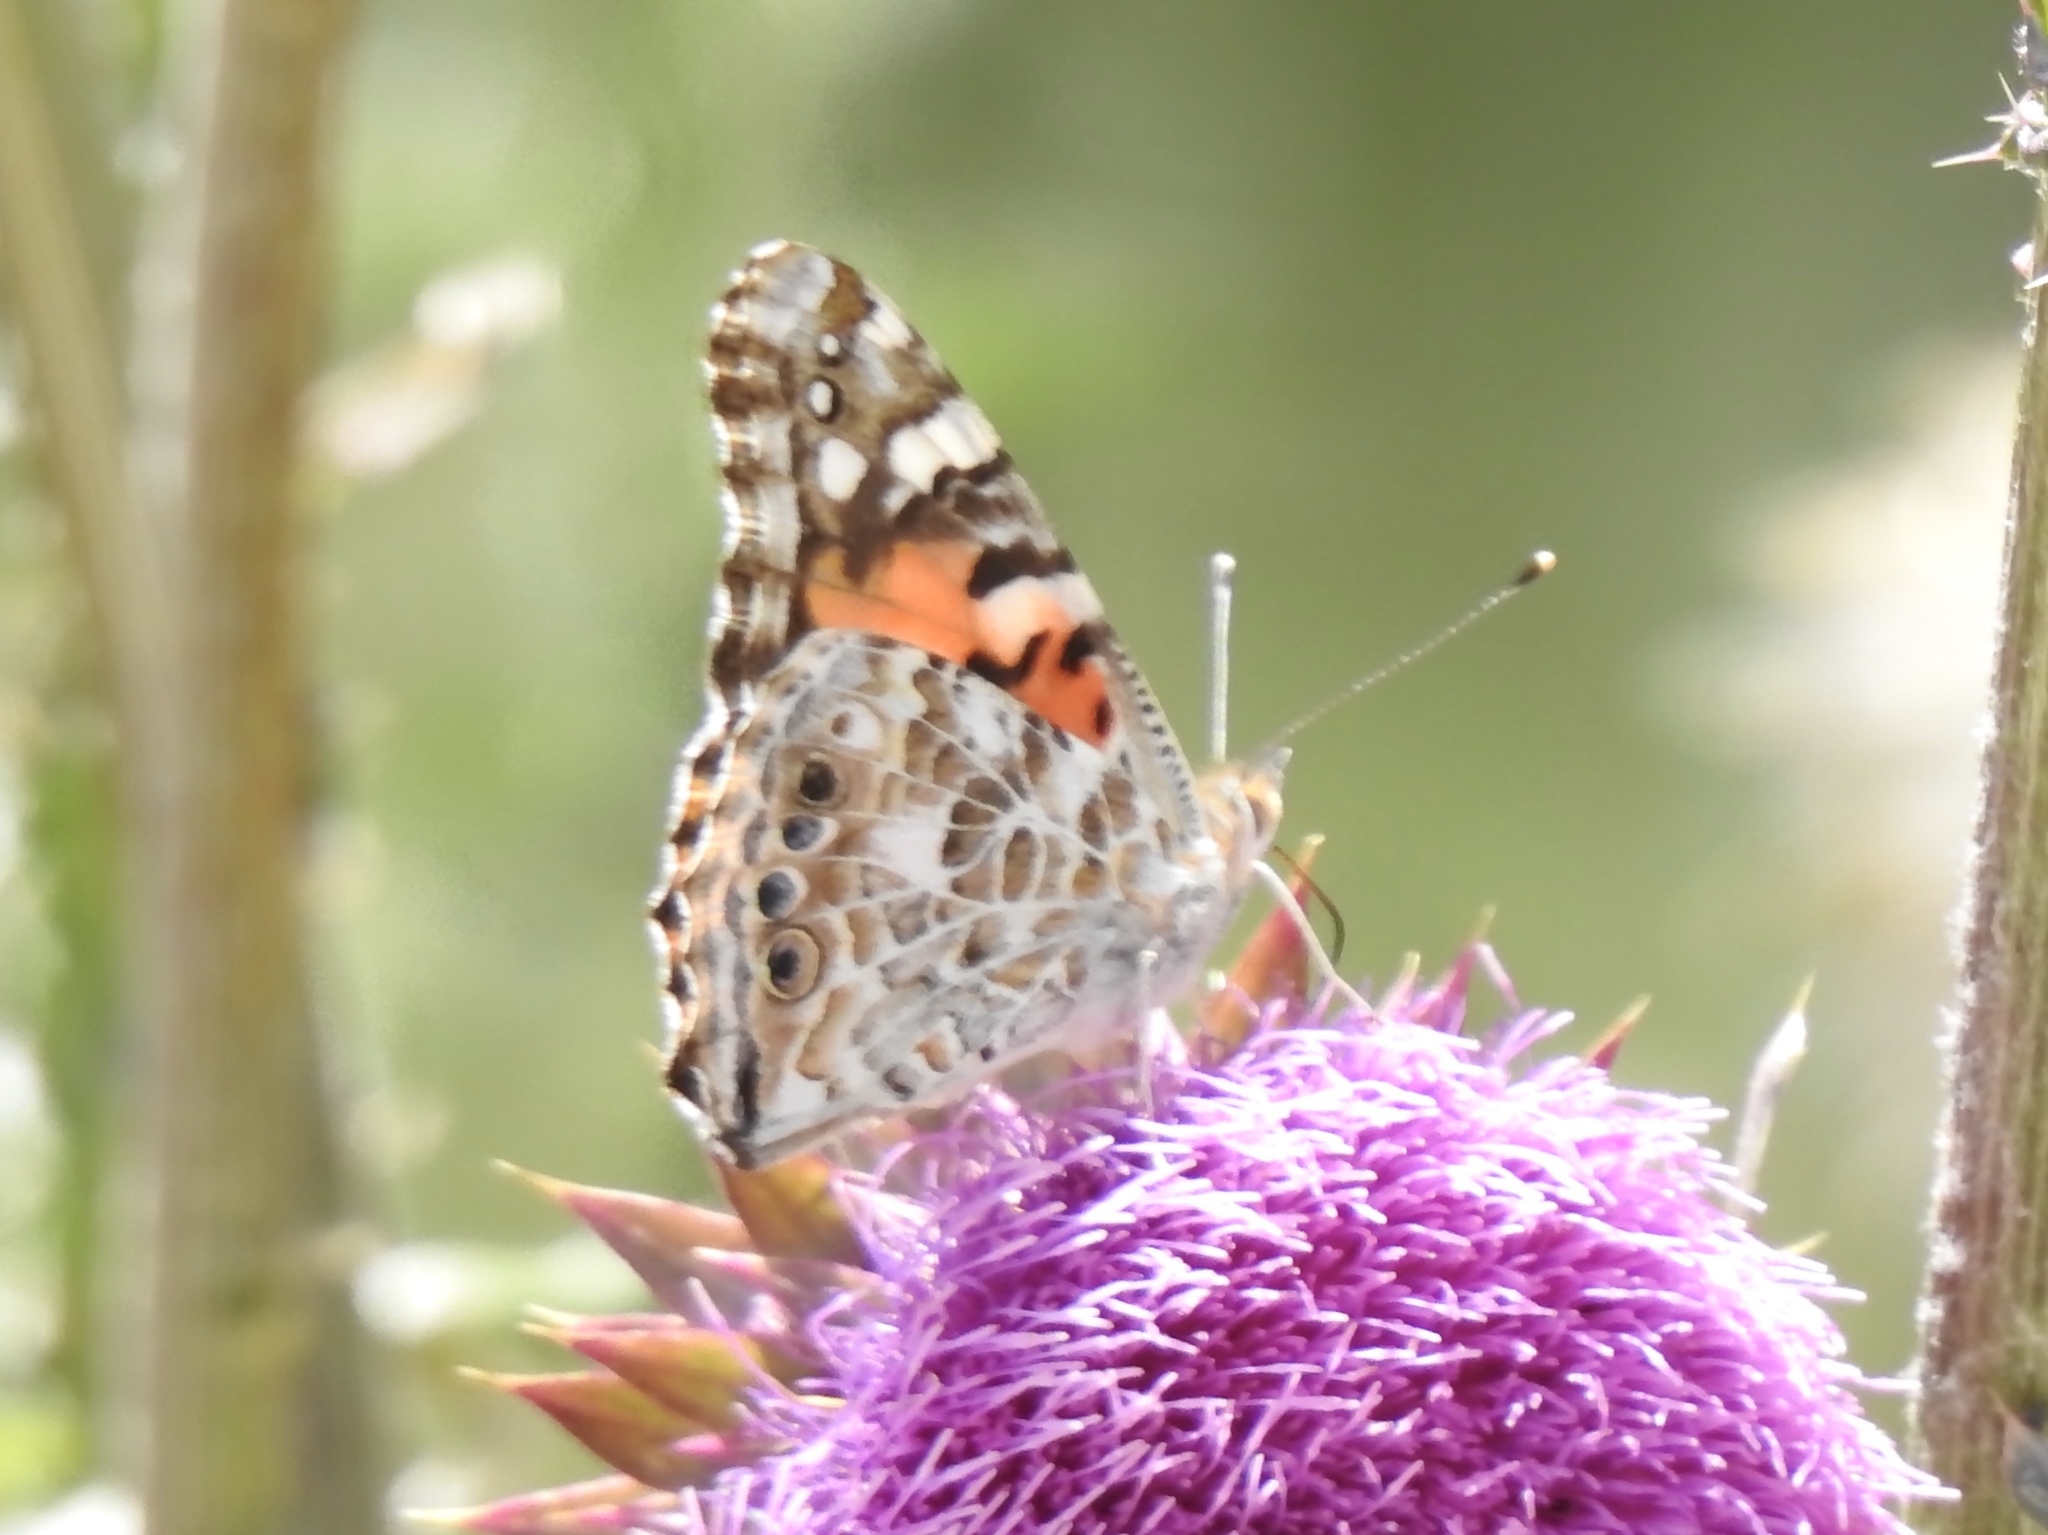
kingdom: Animalia
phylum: Arthropoda
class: Insecta
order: Lepidoptera
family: Nymphalidae
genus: Vanessa
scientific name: Vanessa cardui
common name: Painted lady
